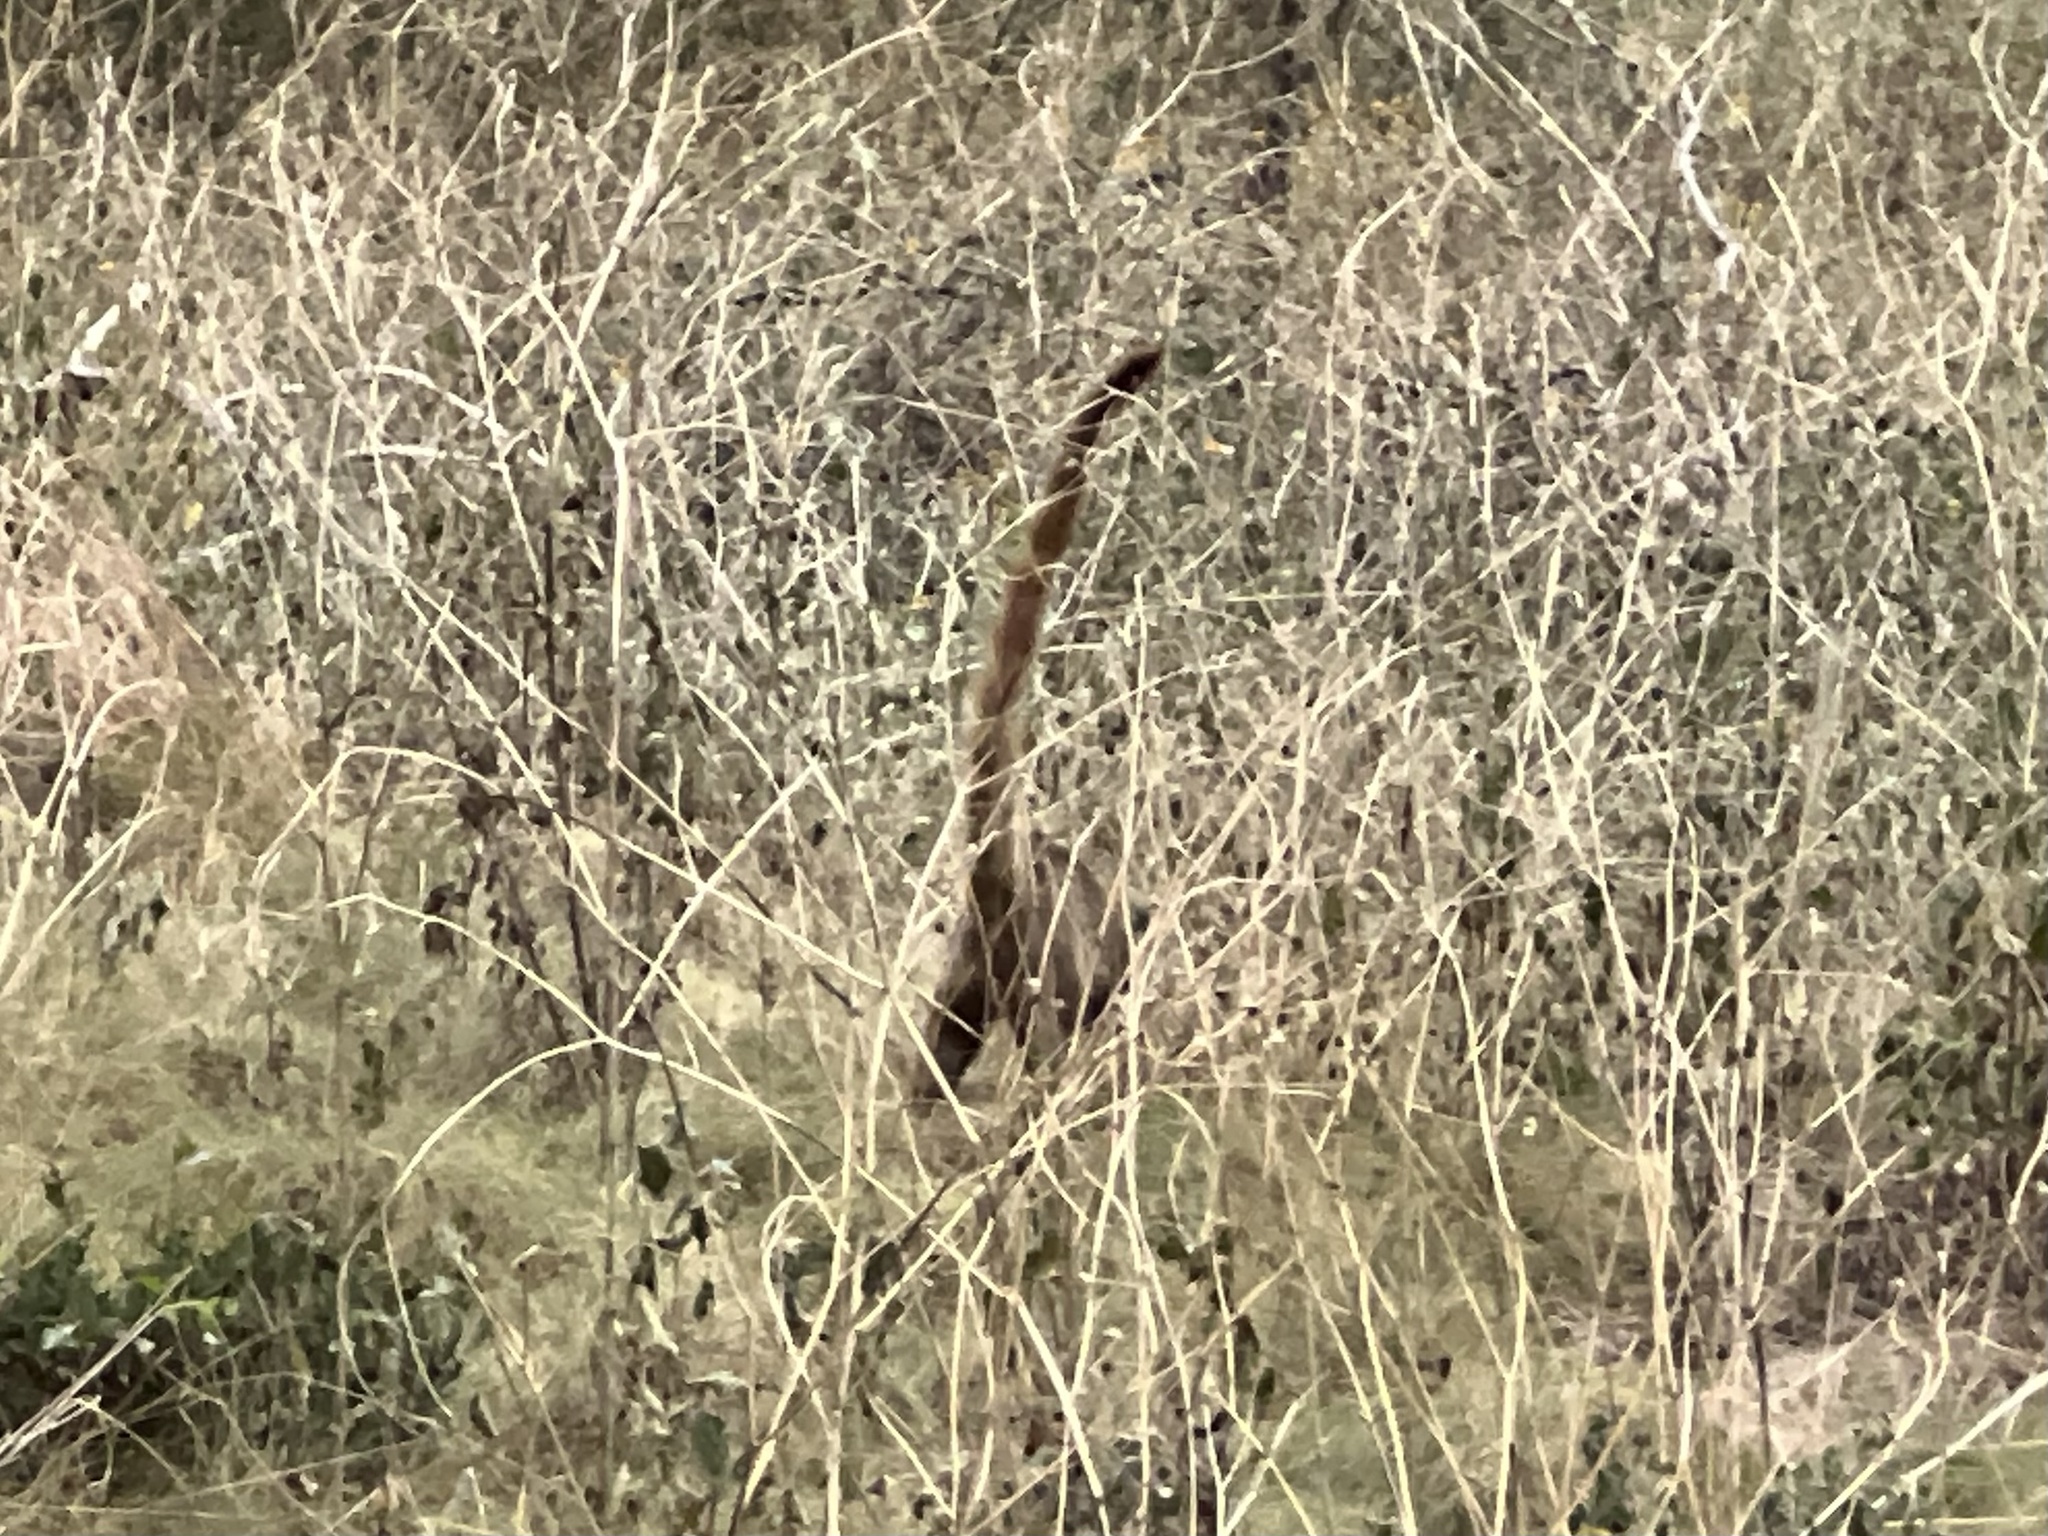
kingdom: Animalia
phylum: Chordata
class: Mammalia
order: Carnivora
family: Procyonidae
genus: Nasua
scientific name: Nasua narica
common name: White-nosed coati
